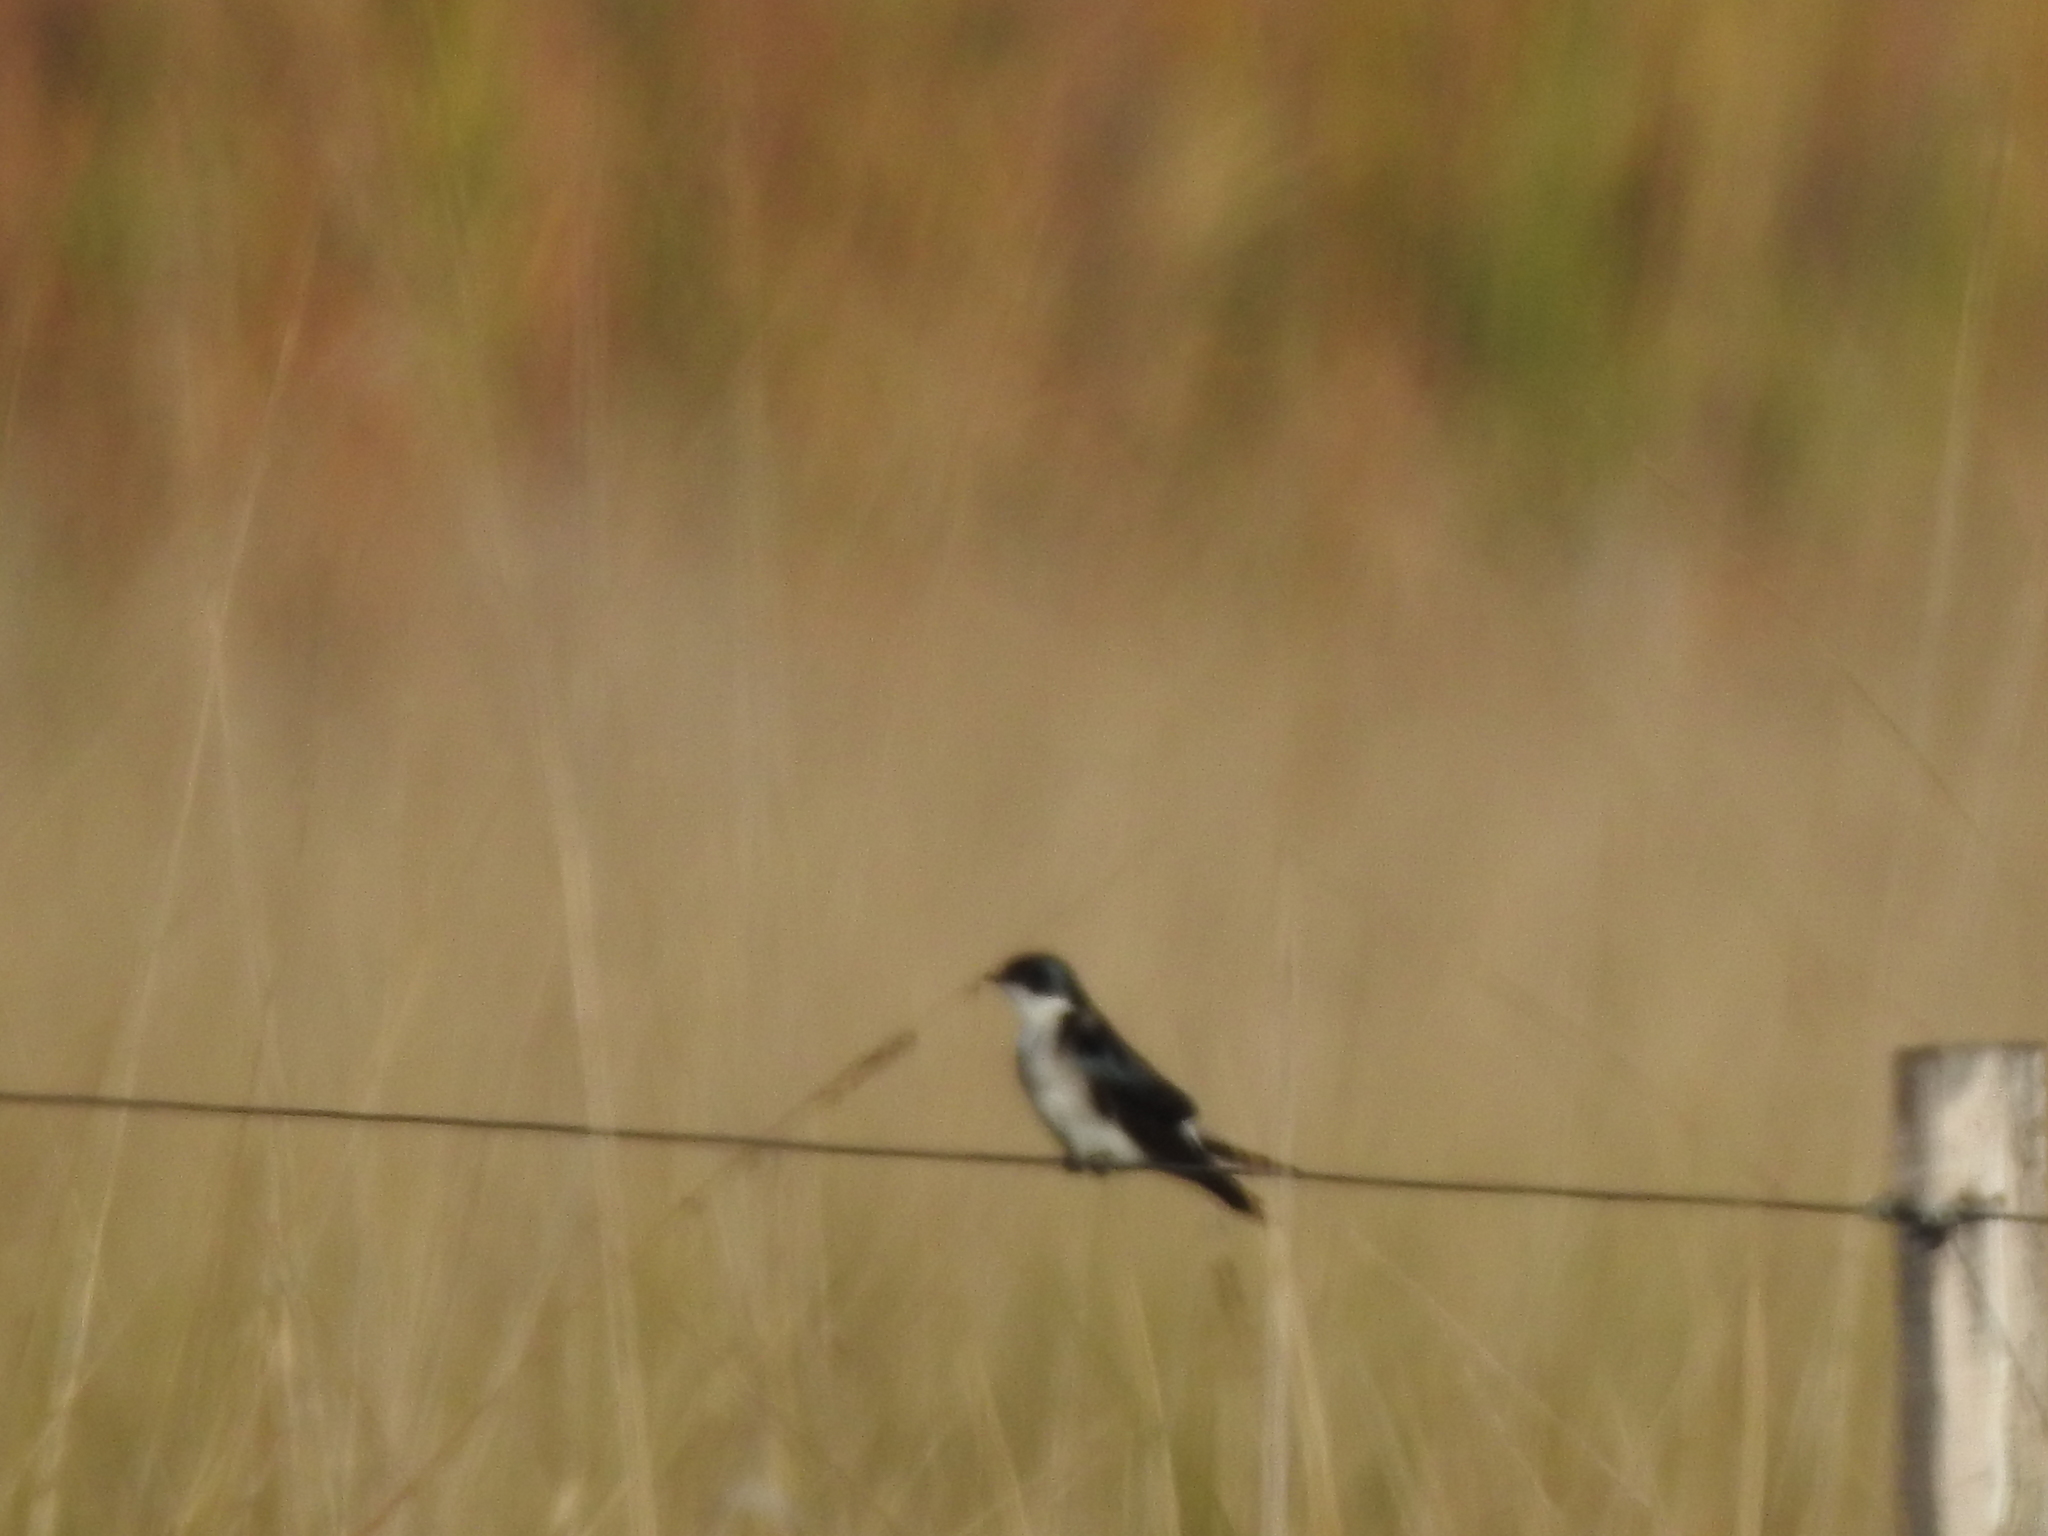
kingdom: Animalia
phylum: Chordata
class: Aves
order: Passeriformes
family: Hirundinidae
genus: Tachycineta
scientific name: Tachycineta leucorrhoa
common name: White-rumped swallow
